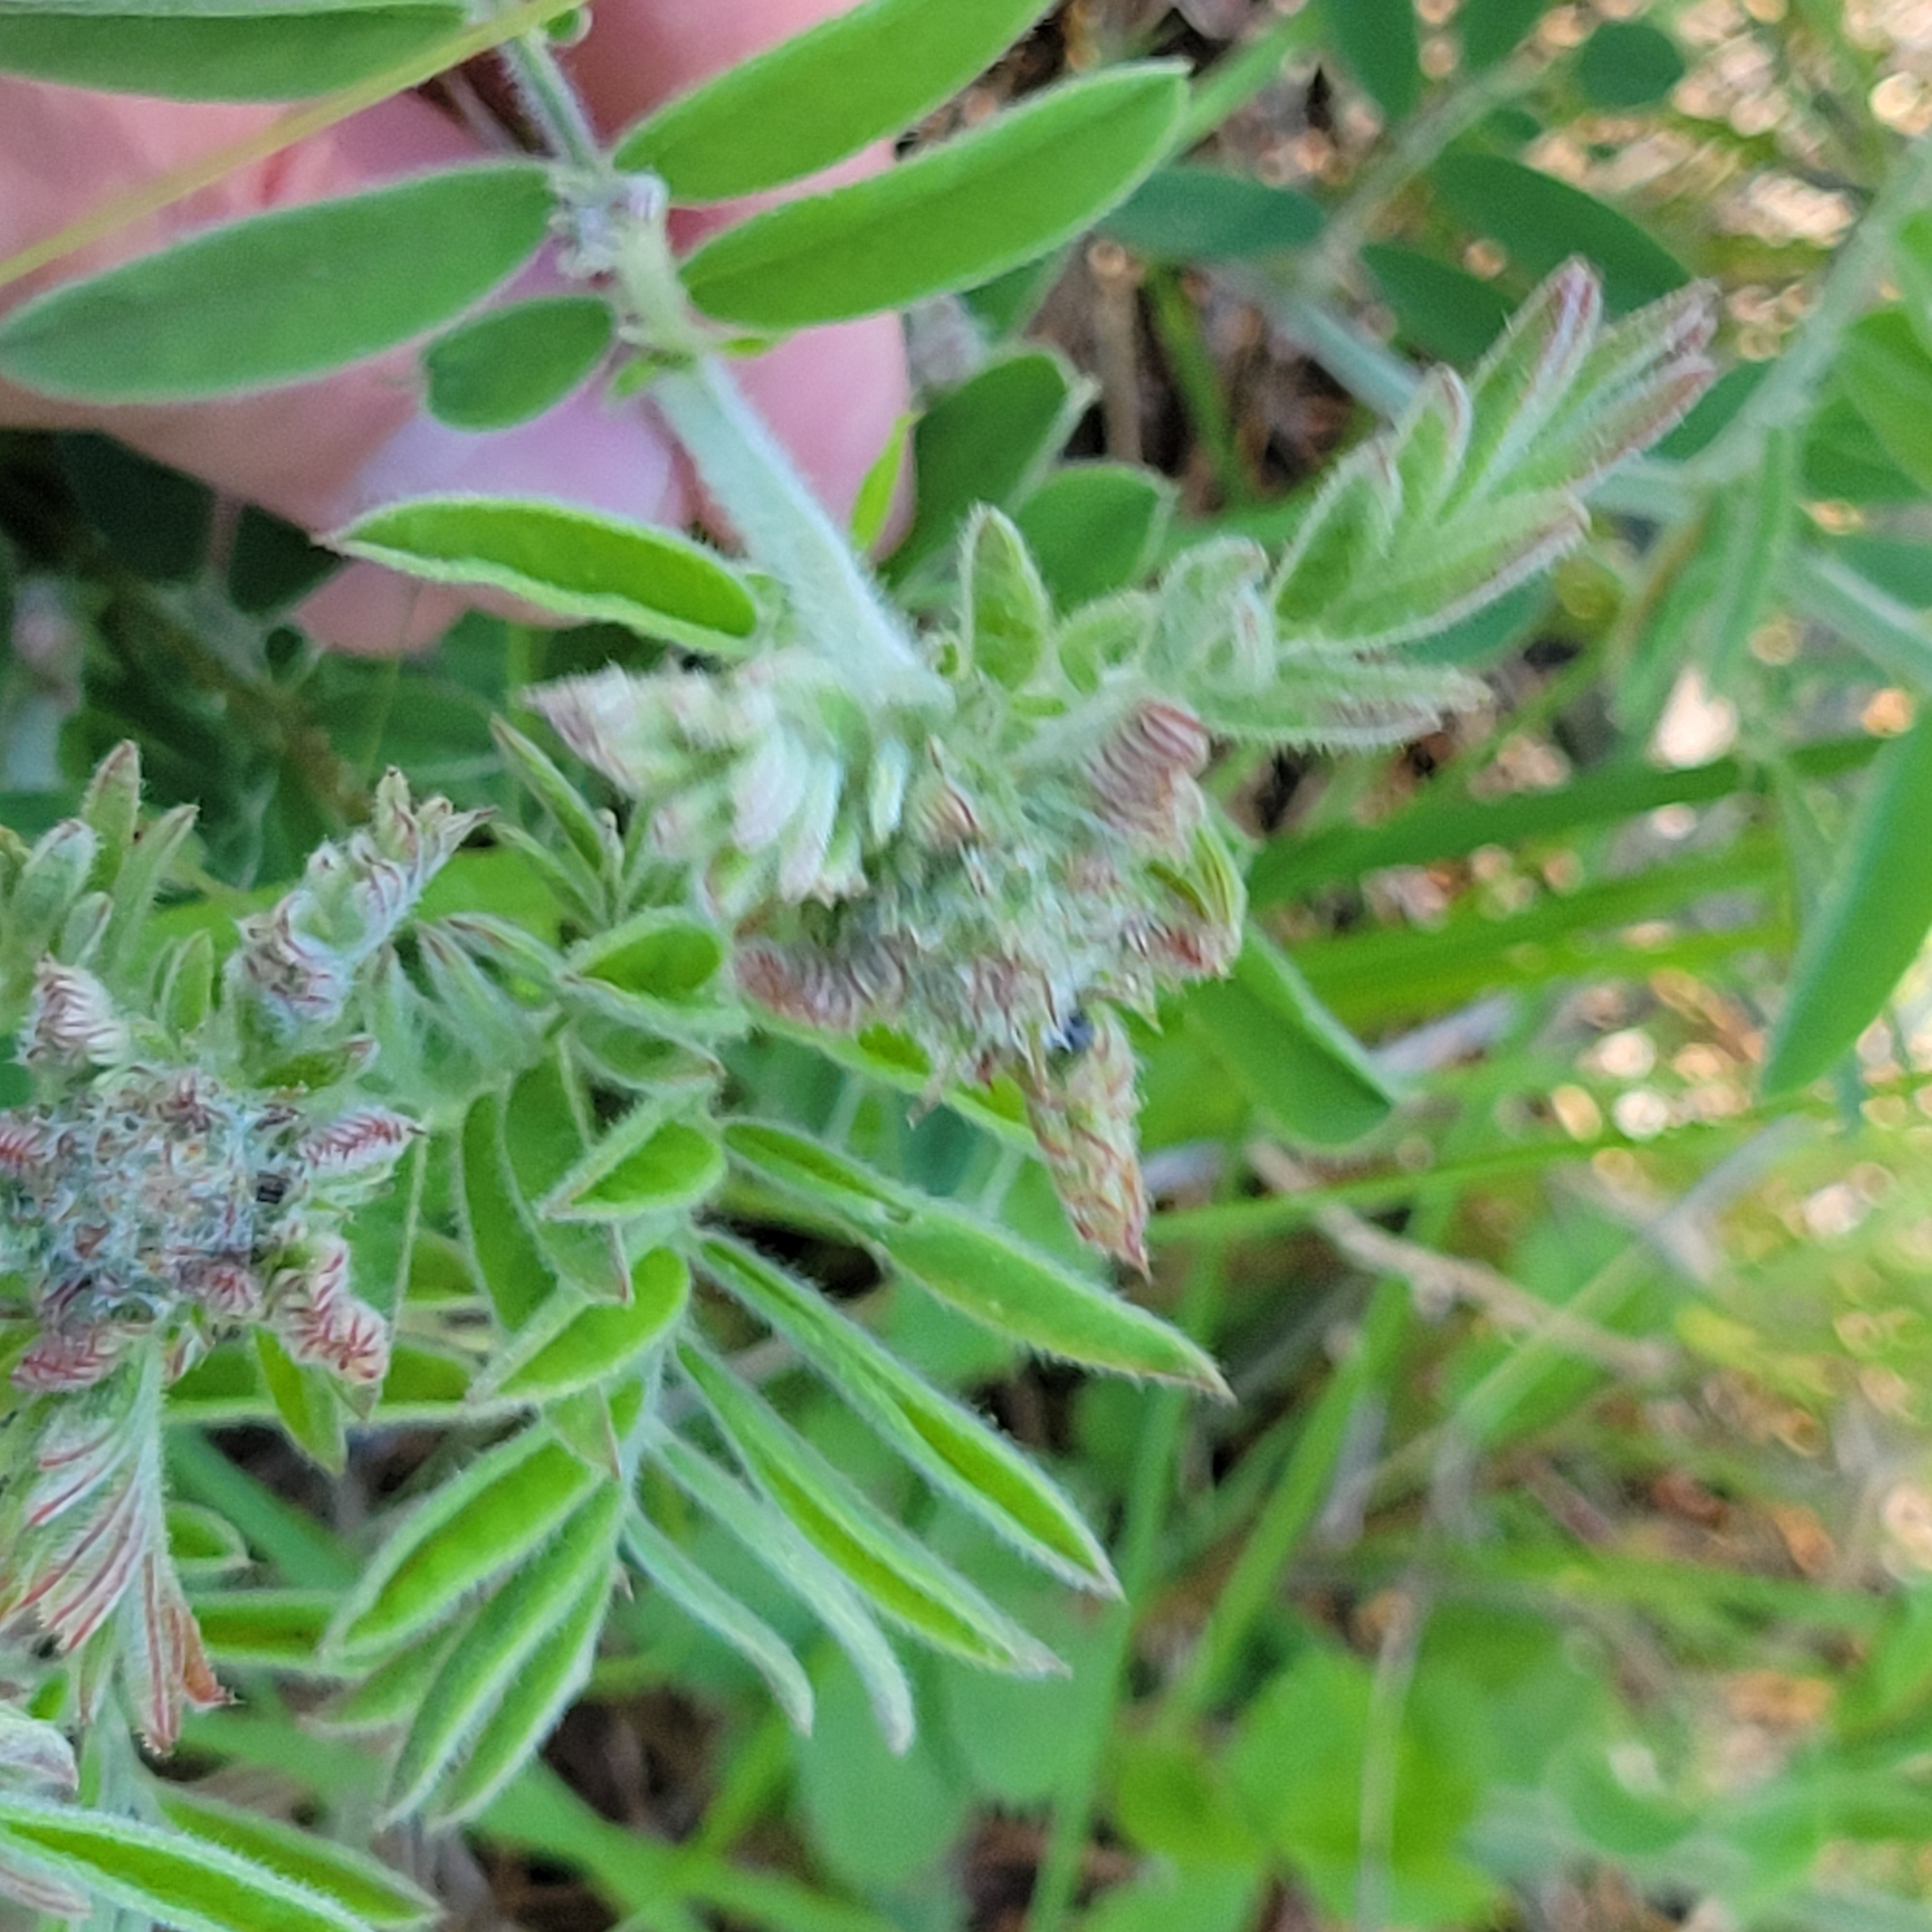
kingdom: Plantae
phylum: Tracheophyta
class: Magnoliopsida
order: Fabales
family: Fabaceae
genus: Tephrosia
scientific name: Tephrosia virginiana
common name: Rabbit-pea
